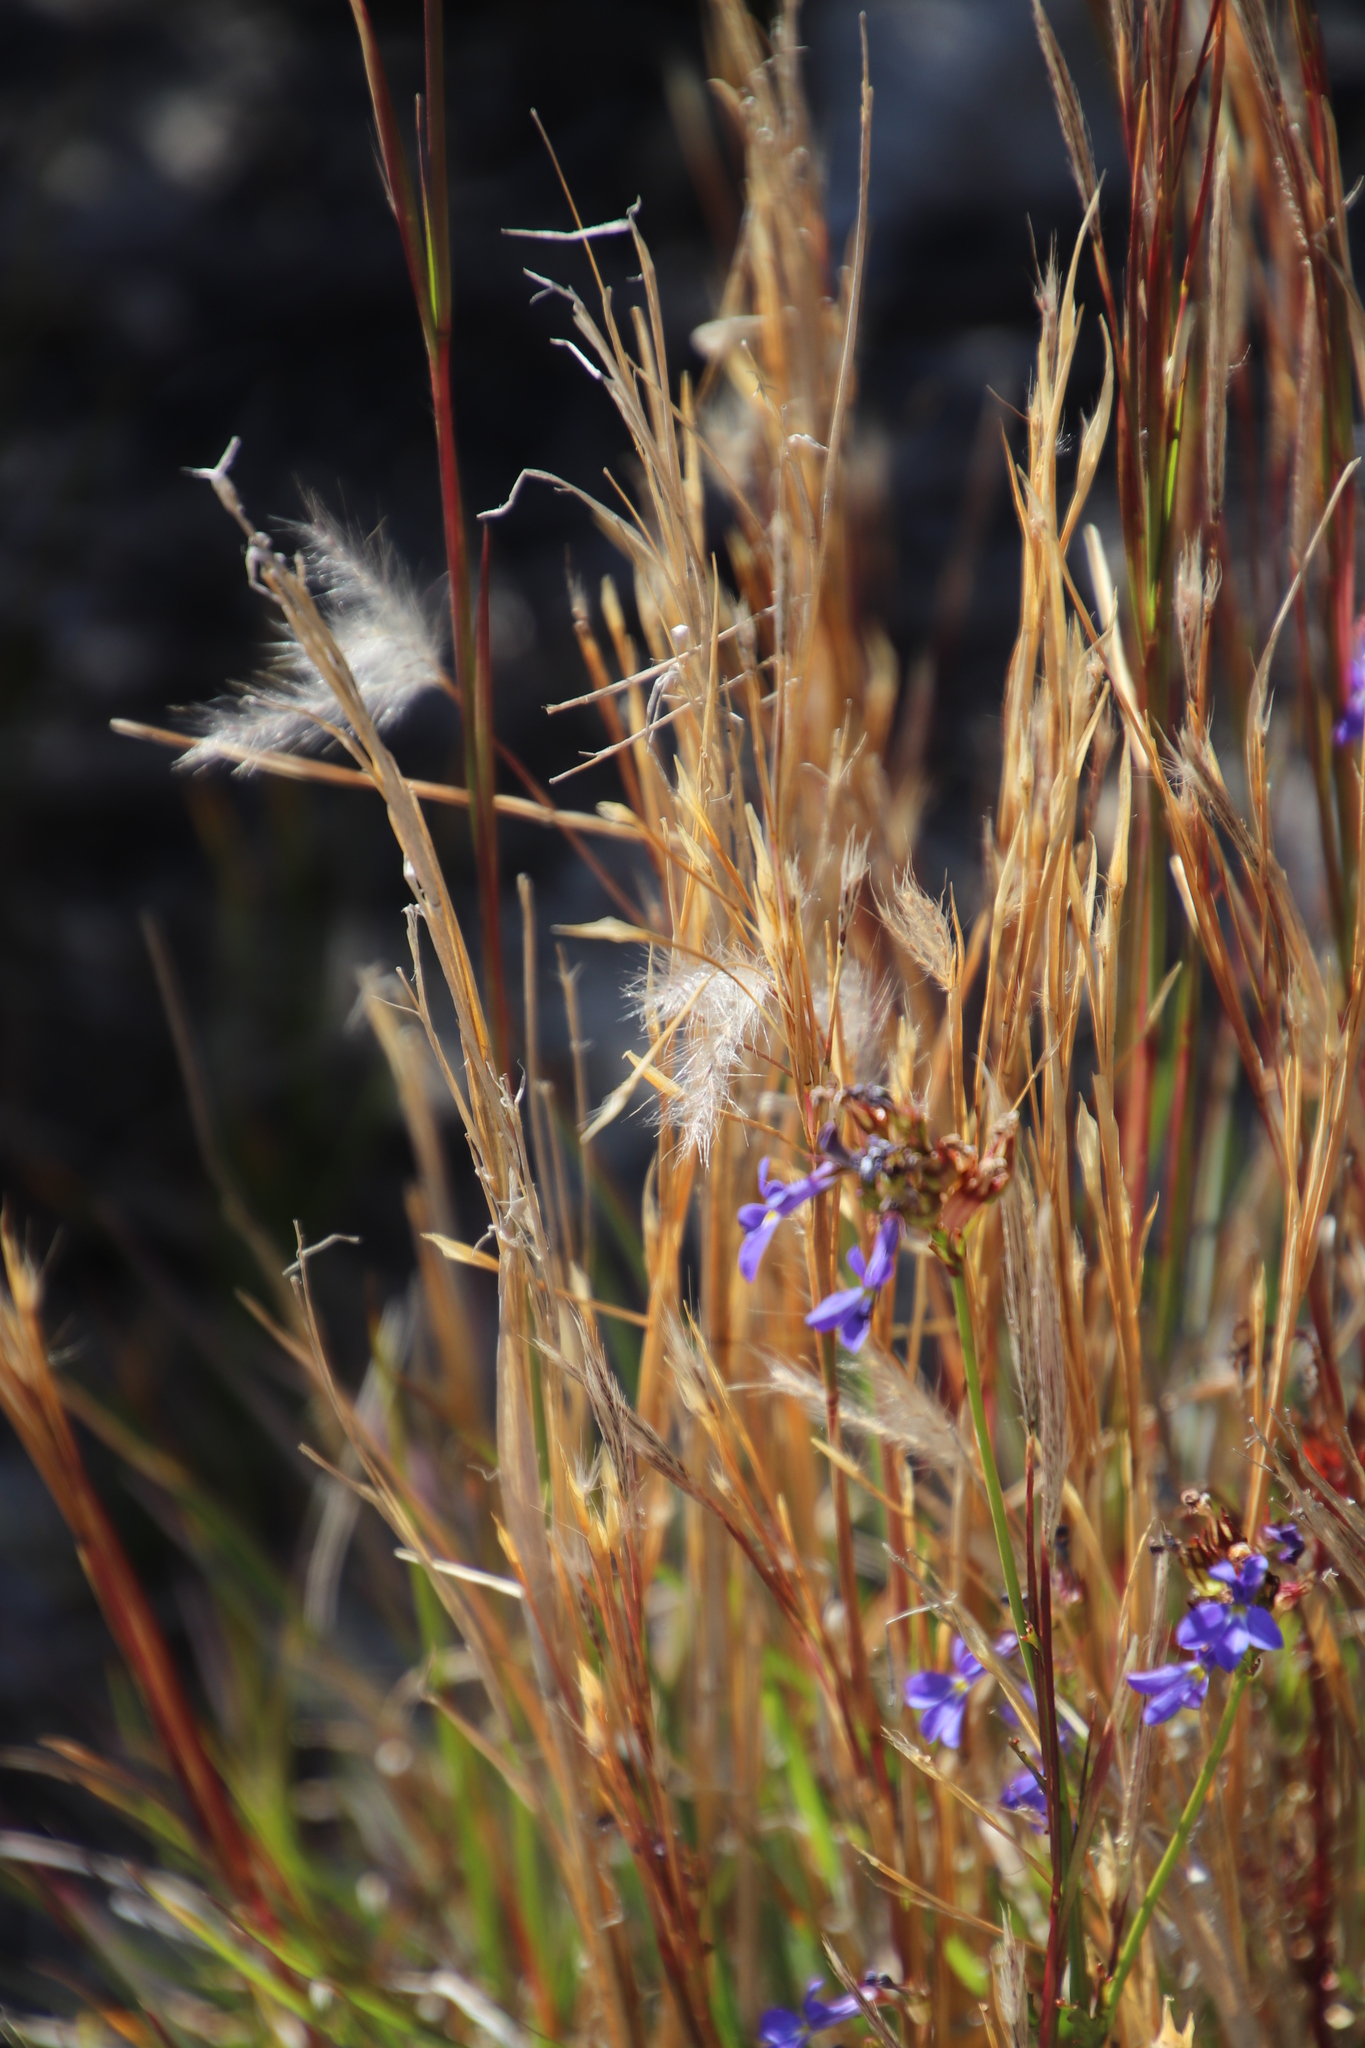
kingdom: Plantae
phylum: Tracheophyta
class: Magnoliopsida
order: Asterales
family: Campanulaceae
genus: Lobelia
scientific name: Lobelia comosa
